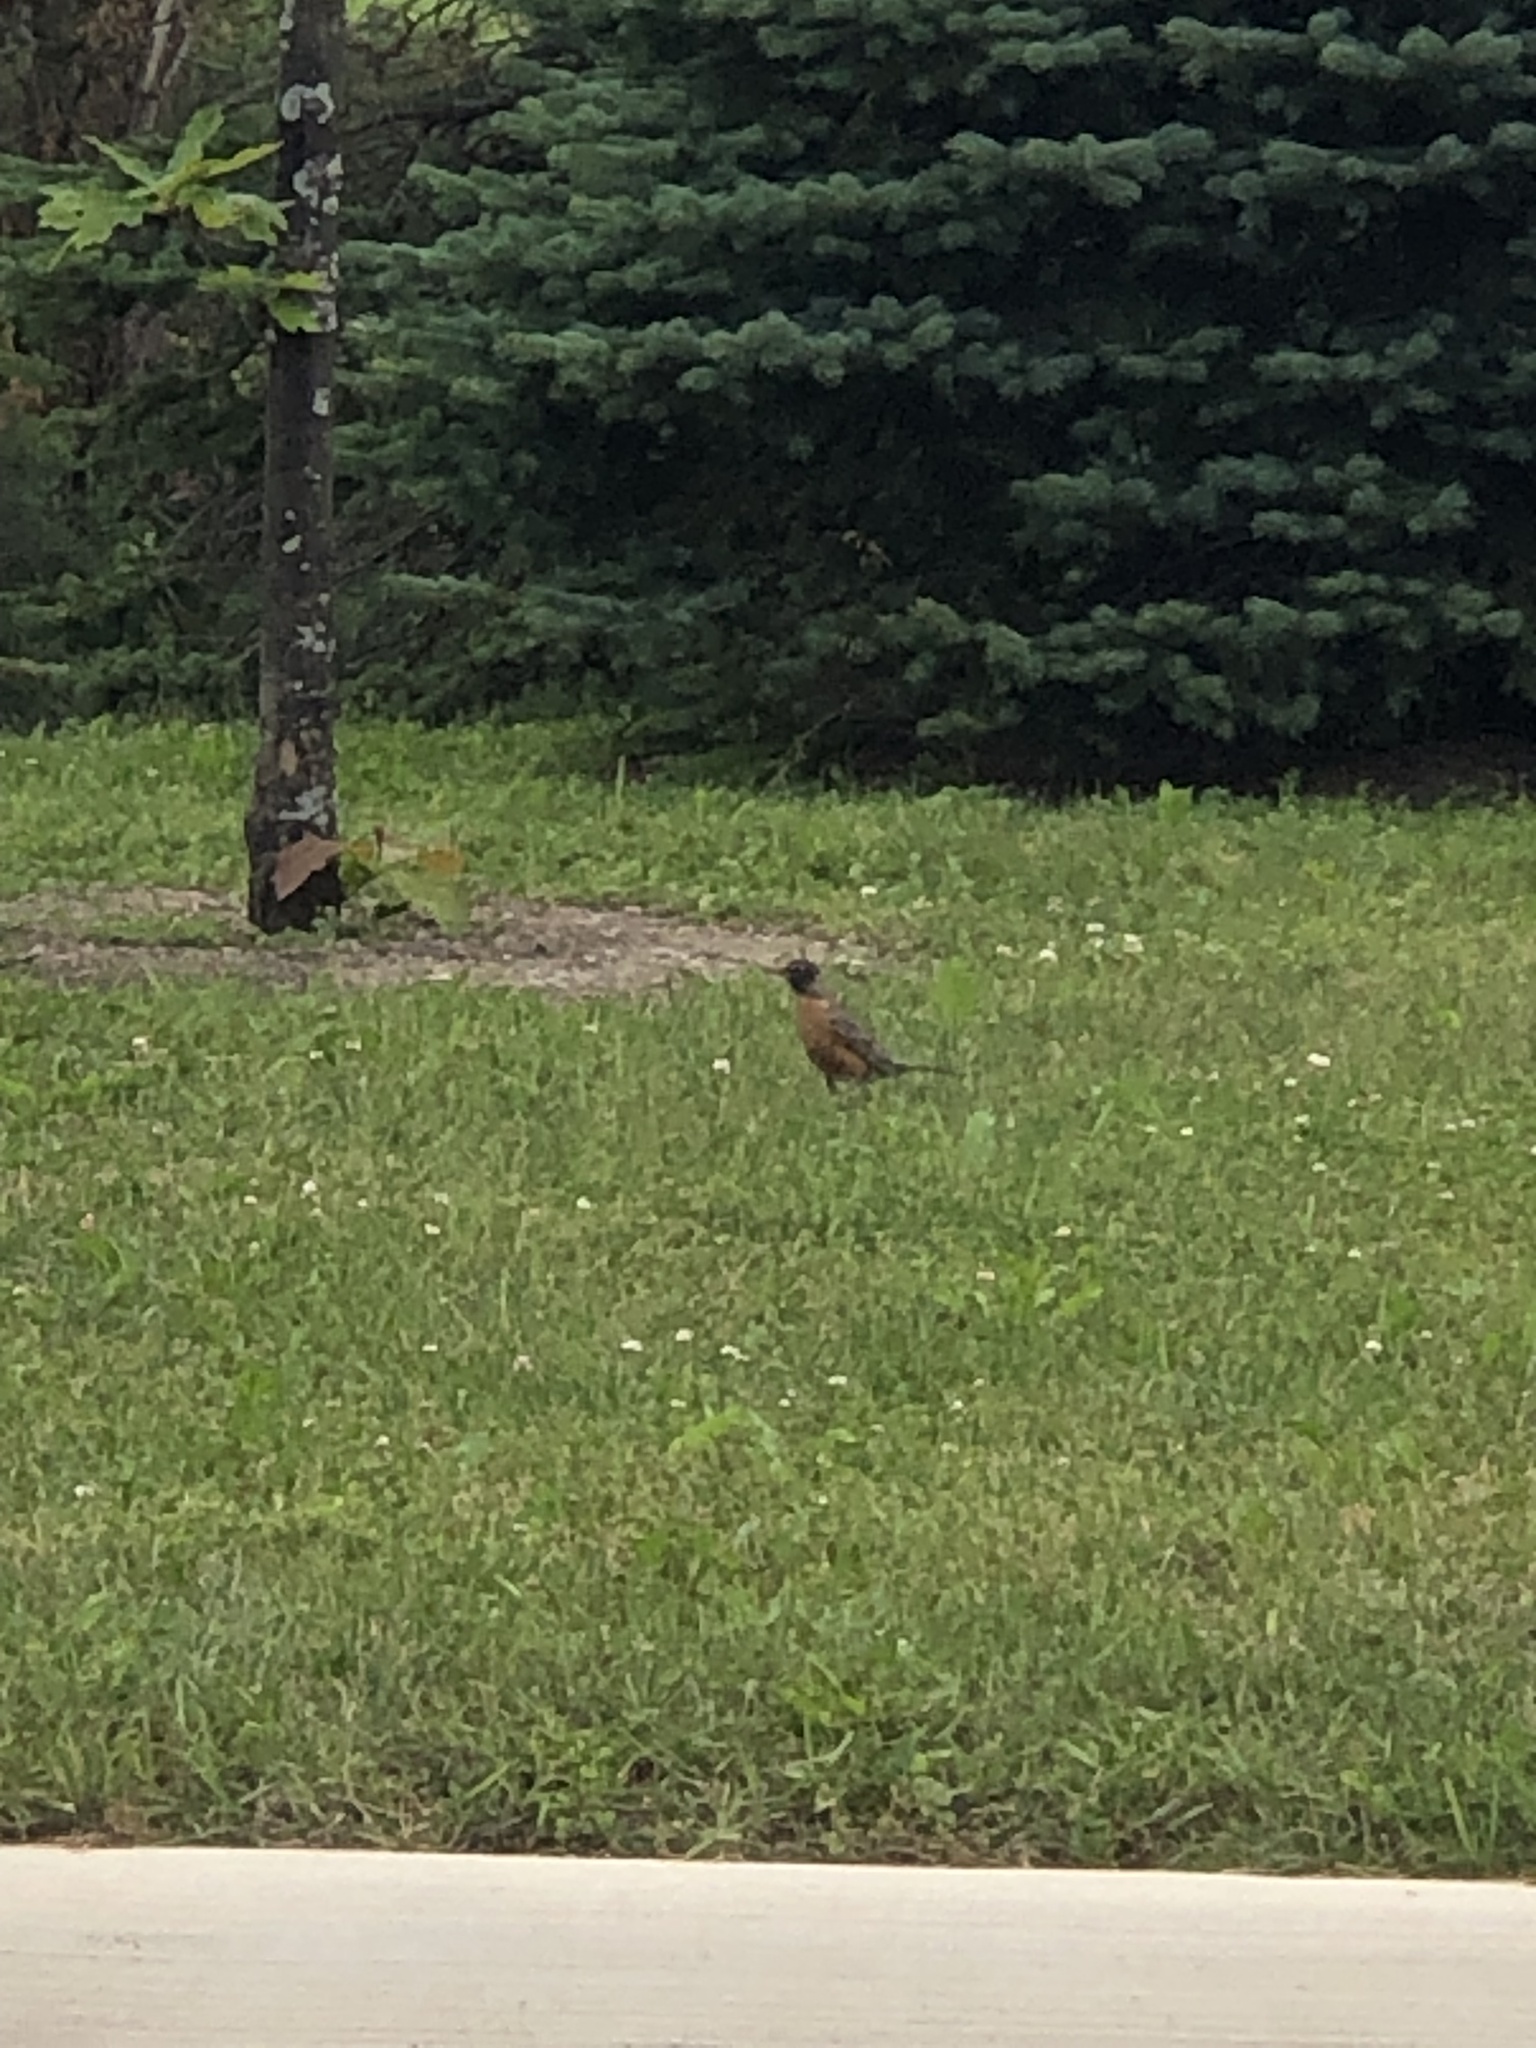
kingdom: Animalia
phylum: Chordata
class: Aves
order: Passeriformes
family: Turdidae
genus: Turdus
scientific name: Turdus migratorius
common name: American robin
